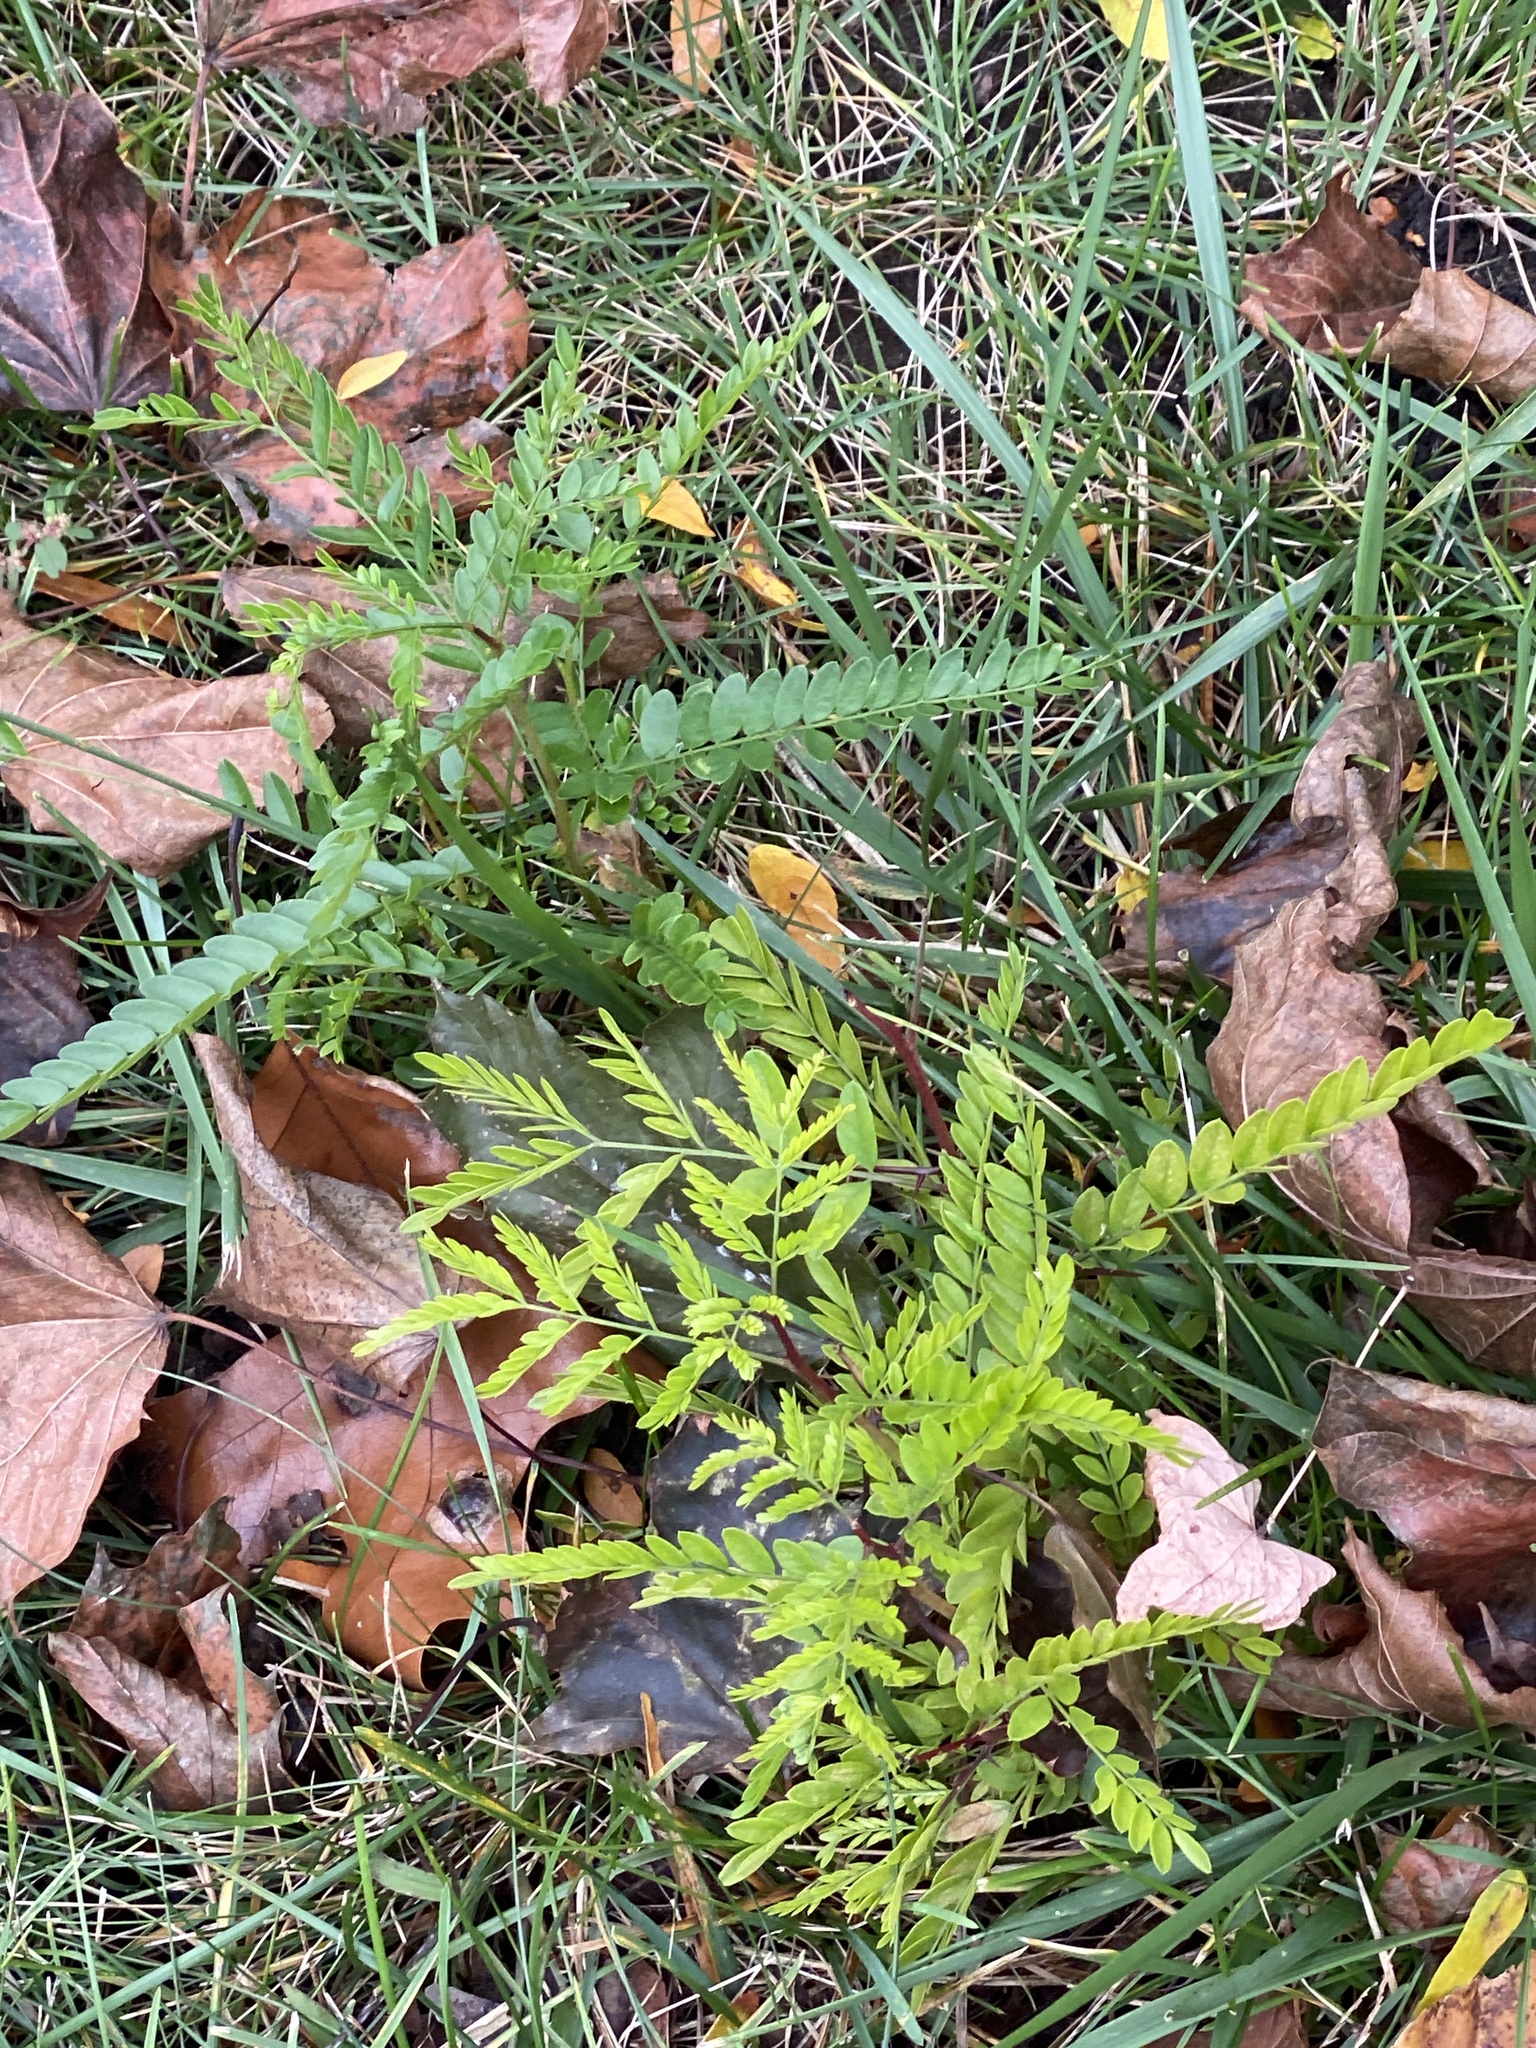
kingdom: Plantae
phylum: Tracheophyta
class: Magnoliopsida
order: Fabales
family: Fabaceae
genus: Gleditsia
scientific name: Gleditsia triacanthos
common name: Common honeylocust
